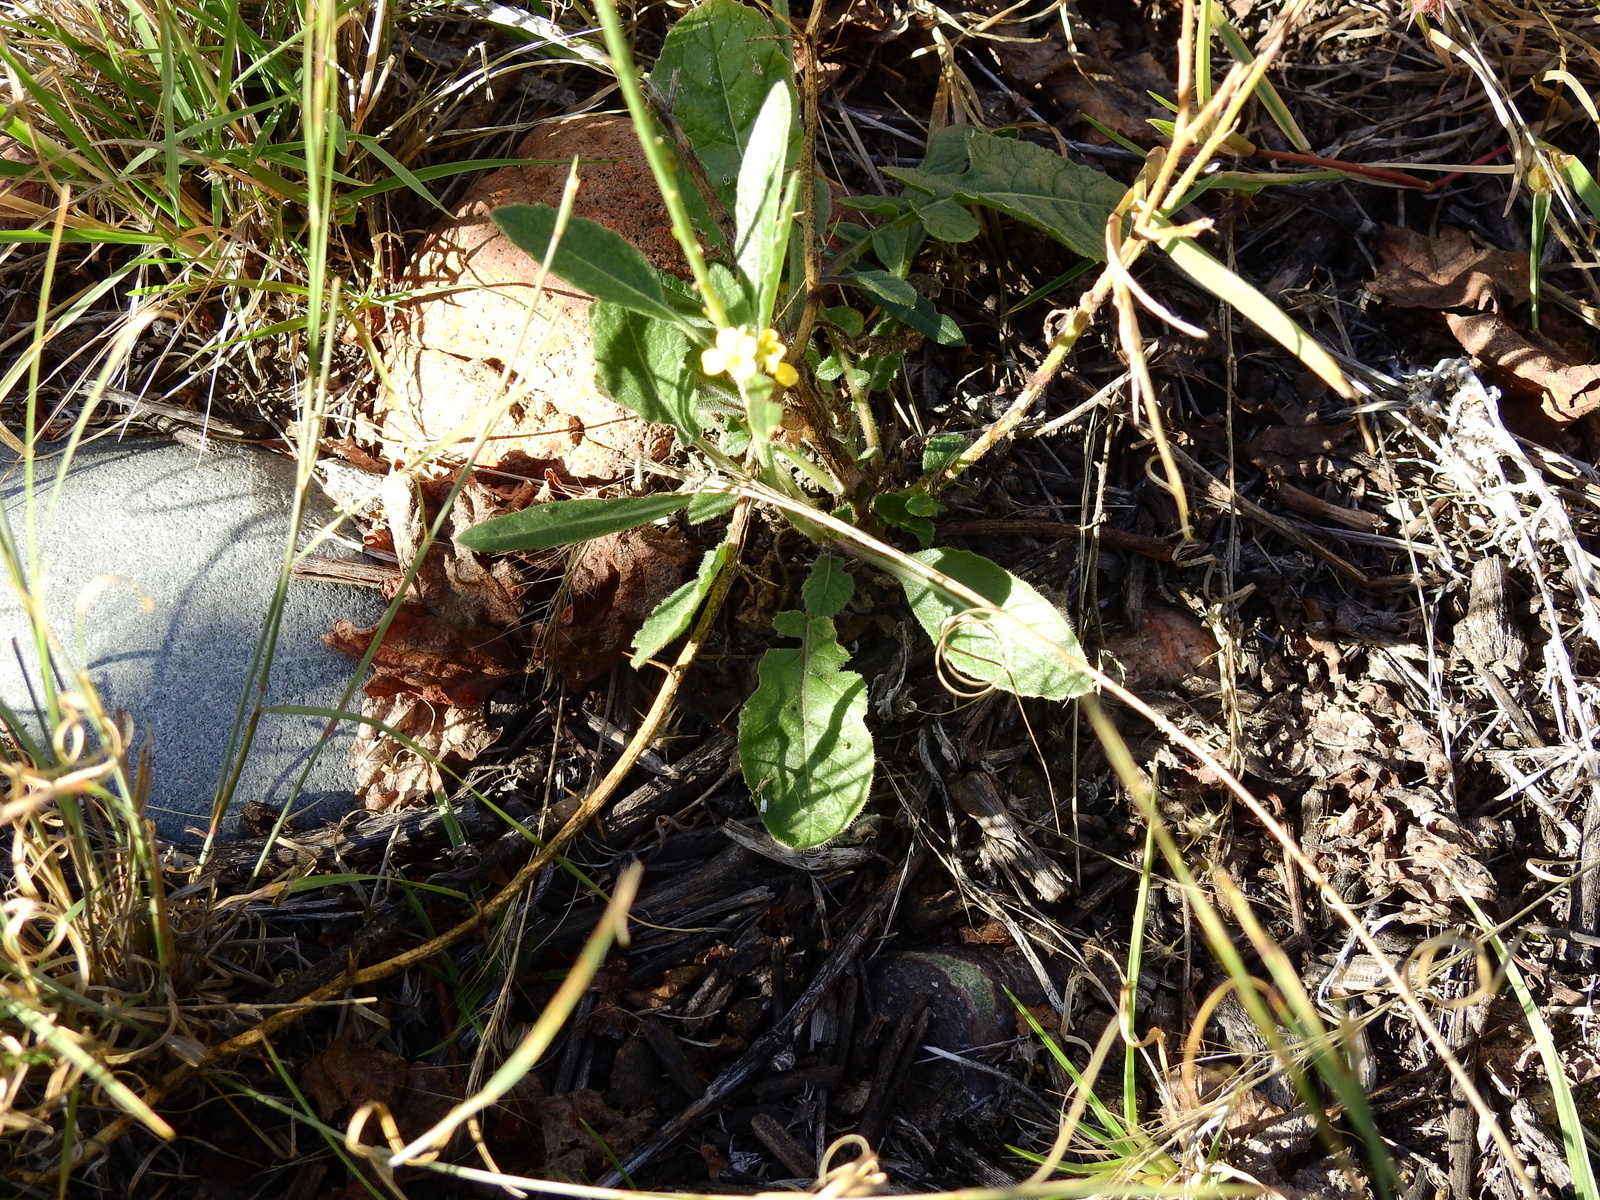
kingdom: Plantae
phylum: Tracheophyta
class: Magnoliopsida
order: Brassicales
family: Brassicaceae
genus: Rapistrum
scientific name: Rapistrum rugosum
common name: Annual bastardcabbage
